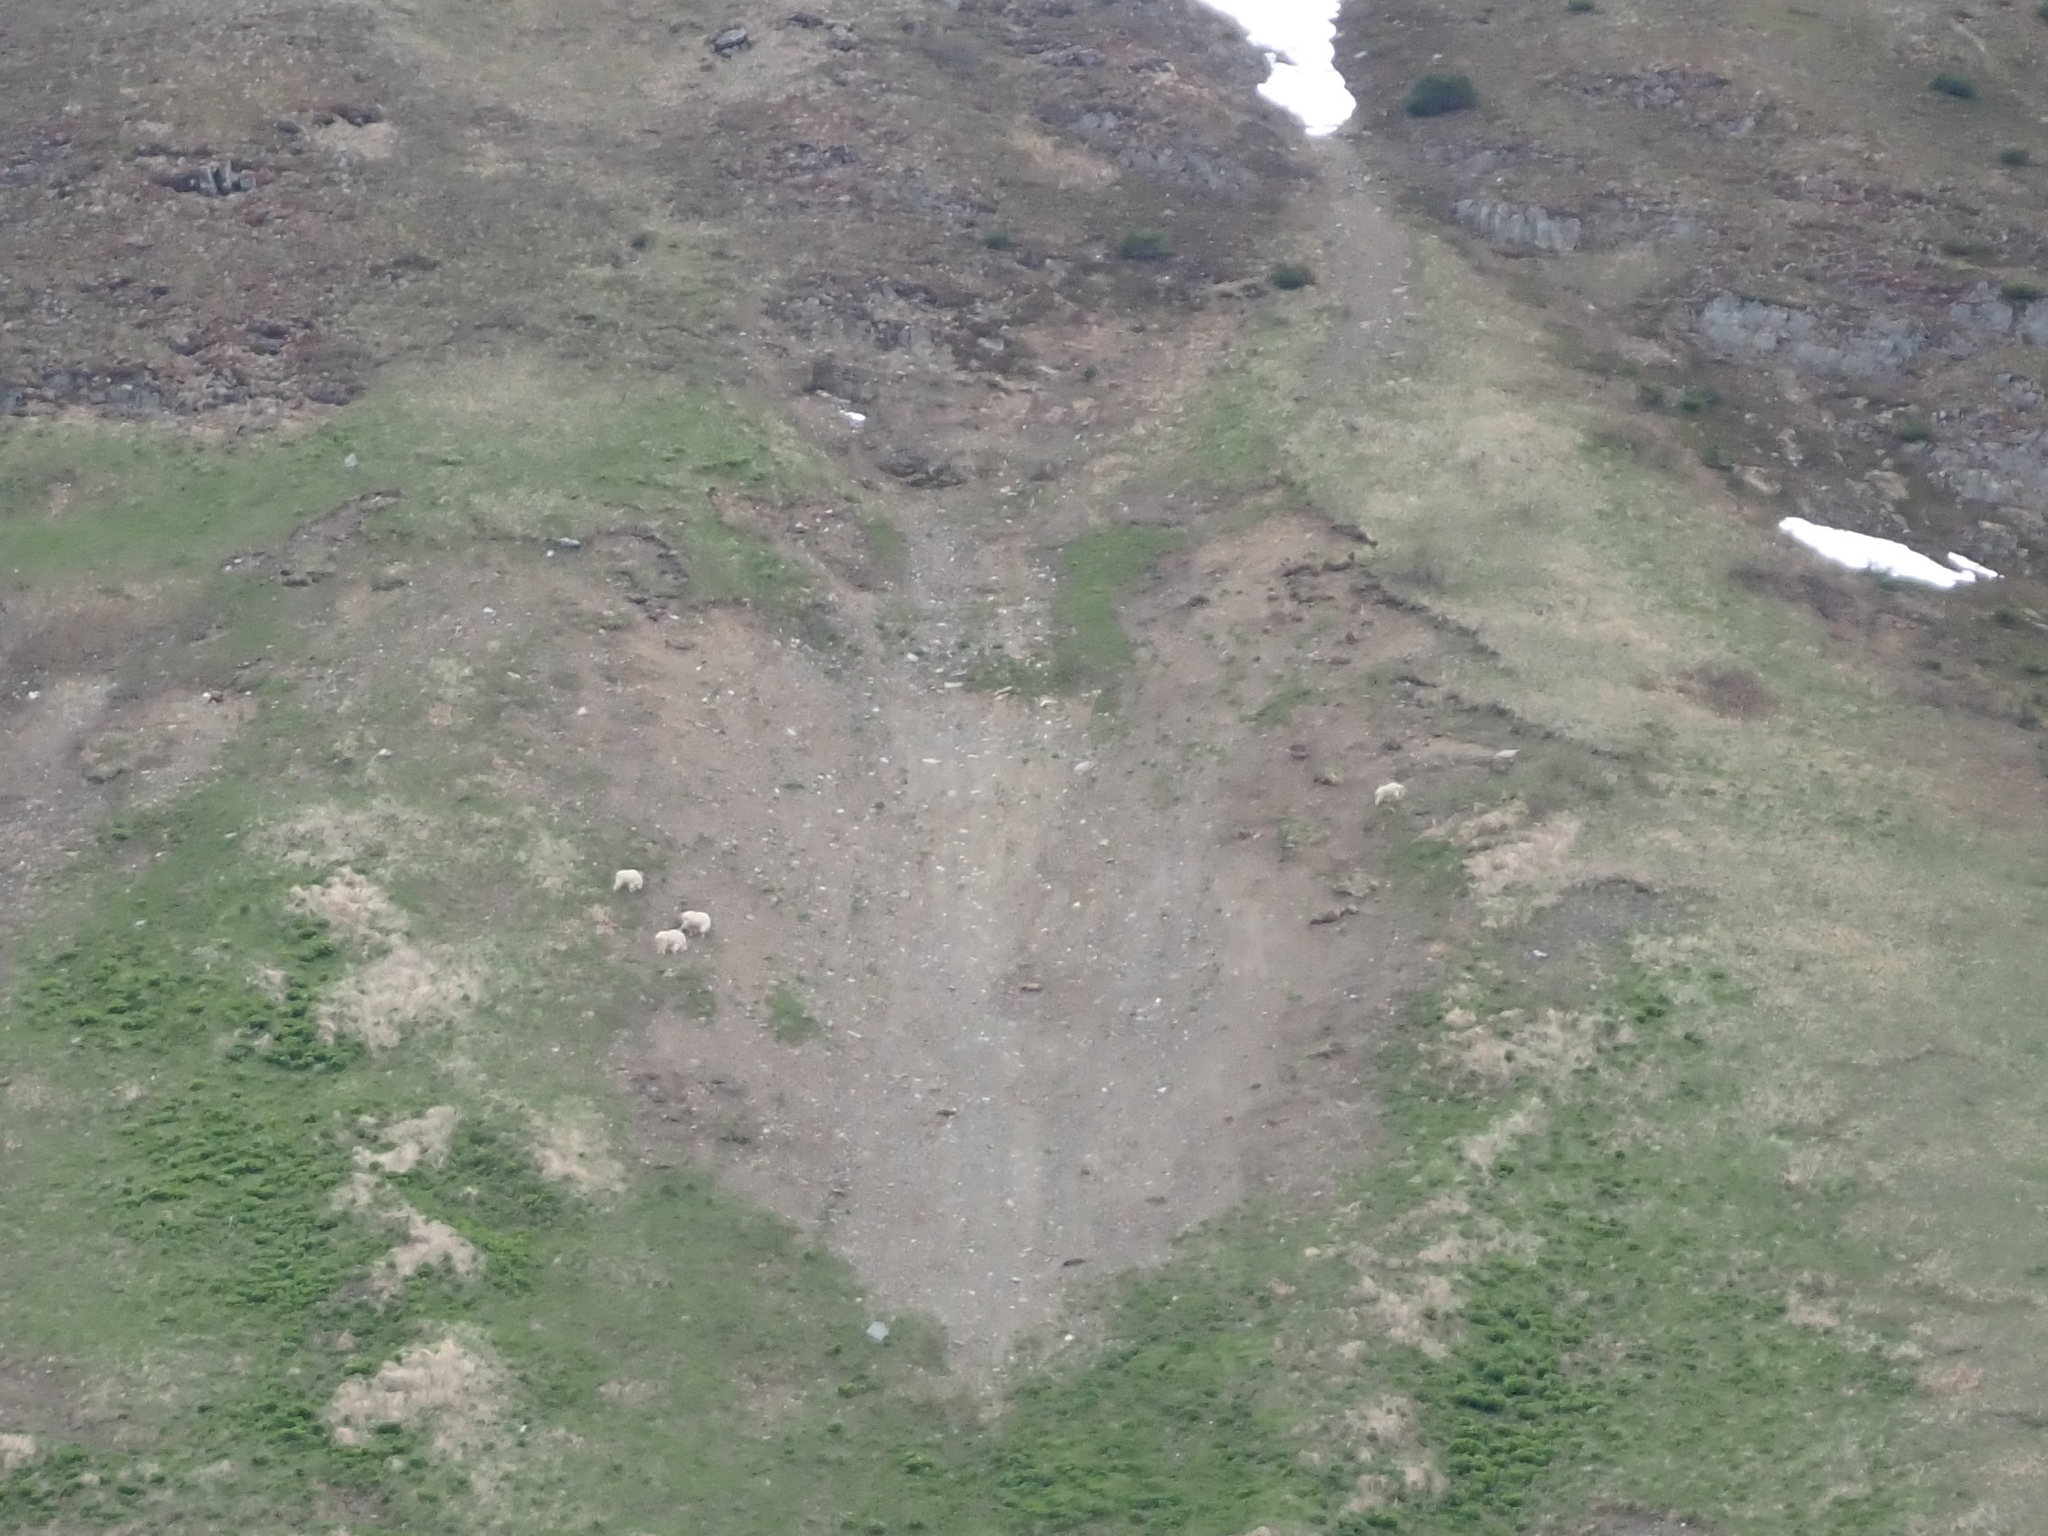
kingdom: Animalia
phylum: Chordata
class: Mammalia
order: Artiodactyla
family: Bovidae
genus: Oreamnos
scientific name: Oreamnos americanus
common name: Mountain goat
